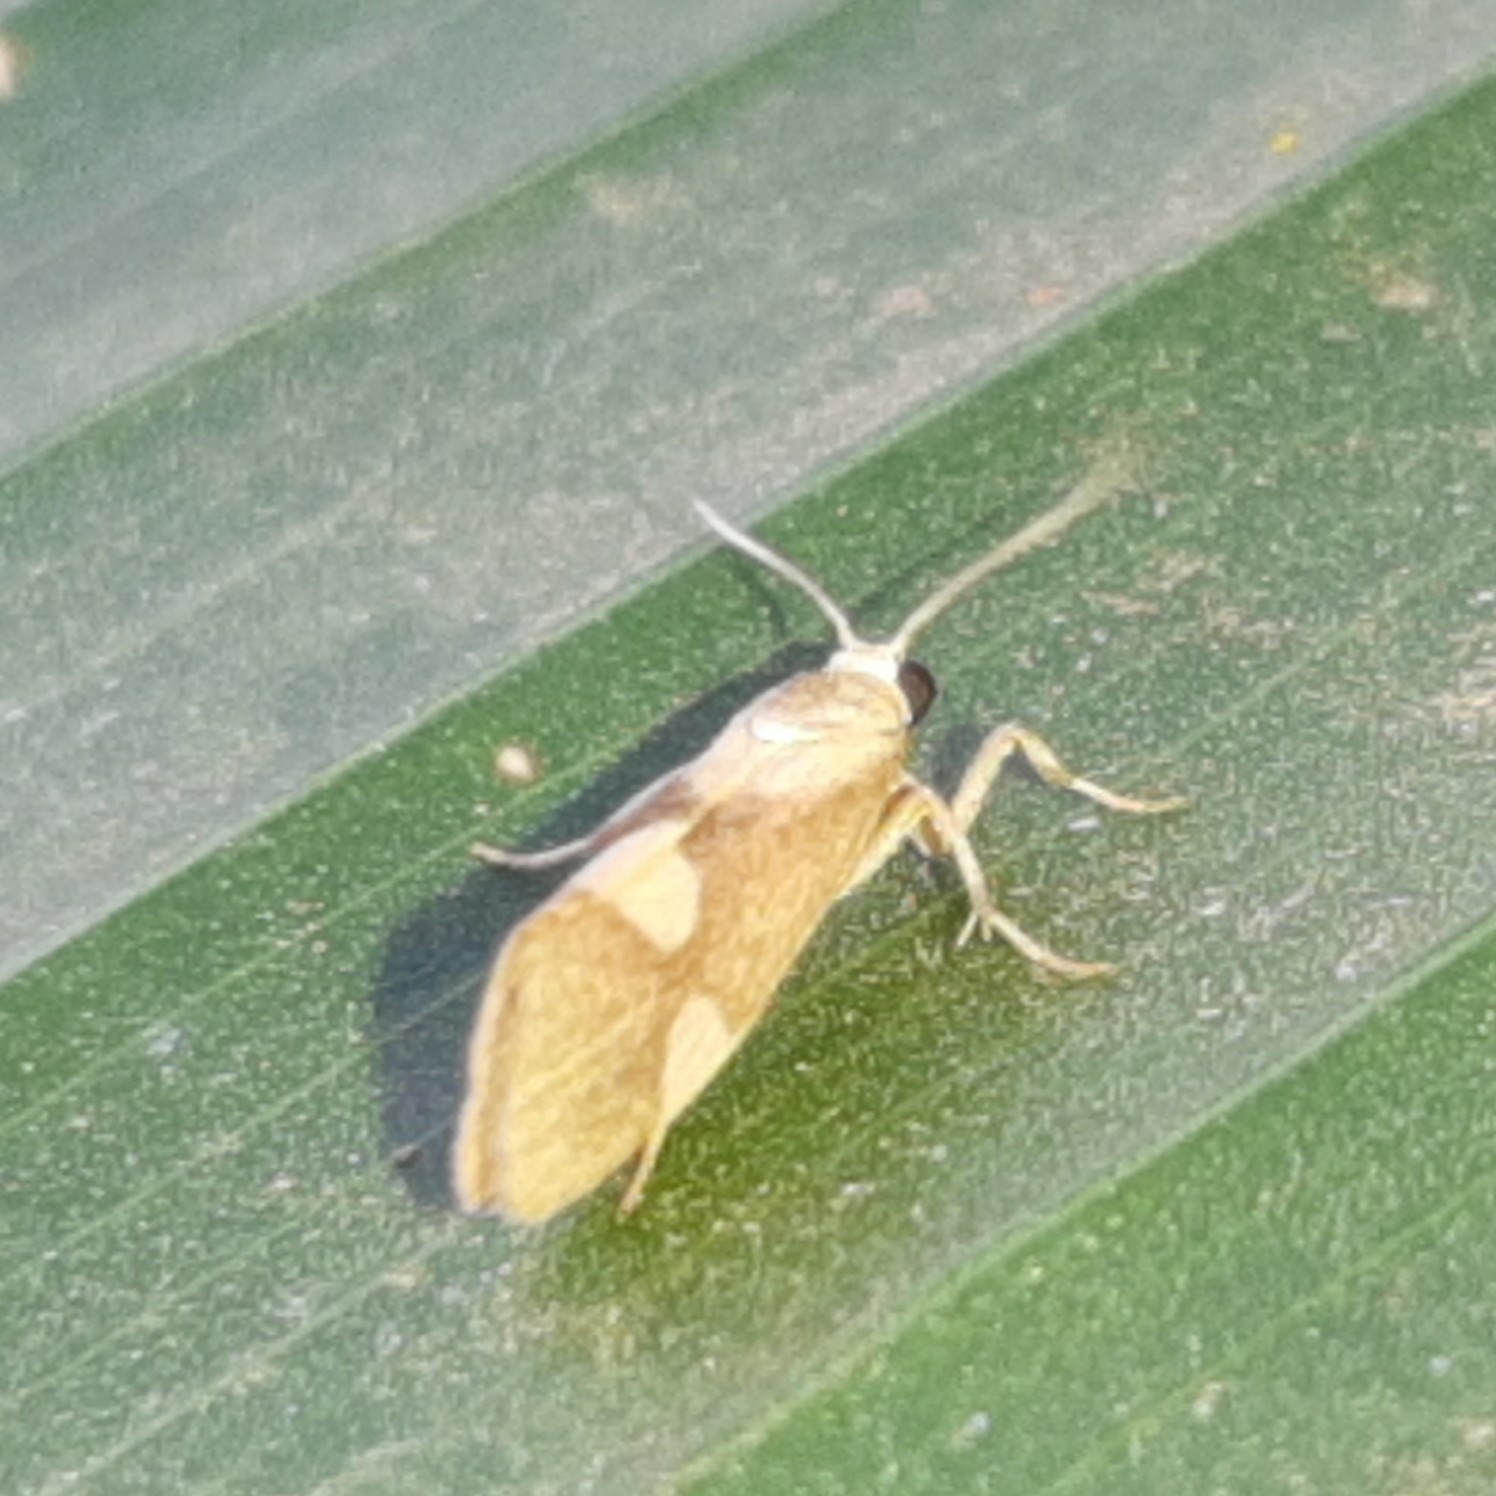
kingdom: Animalia
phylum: Arthropoda
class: Insecta
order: Lepidoptera
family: Erebidae
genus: Cisthene
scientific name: Cisthene polyzona
